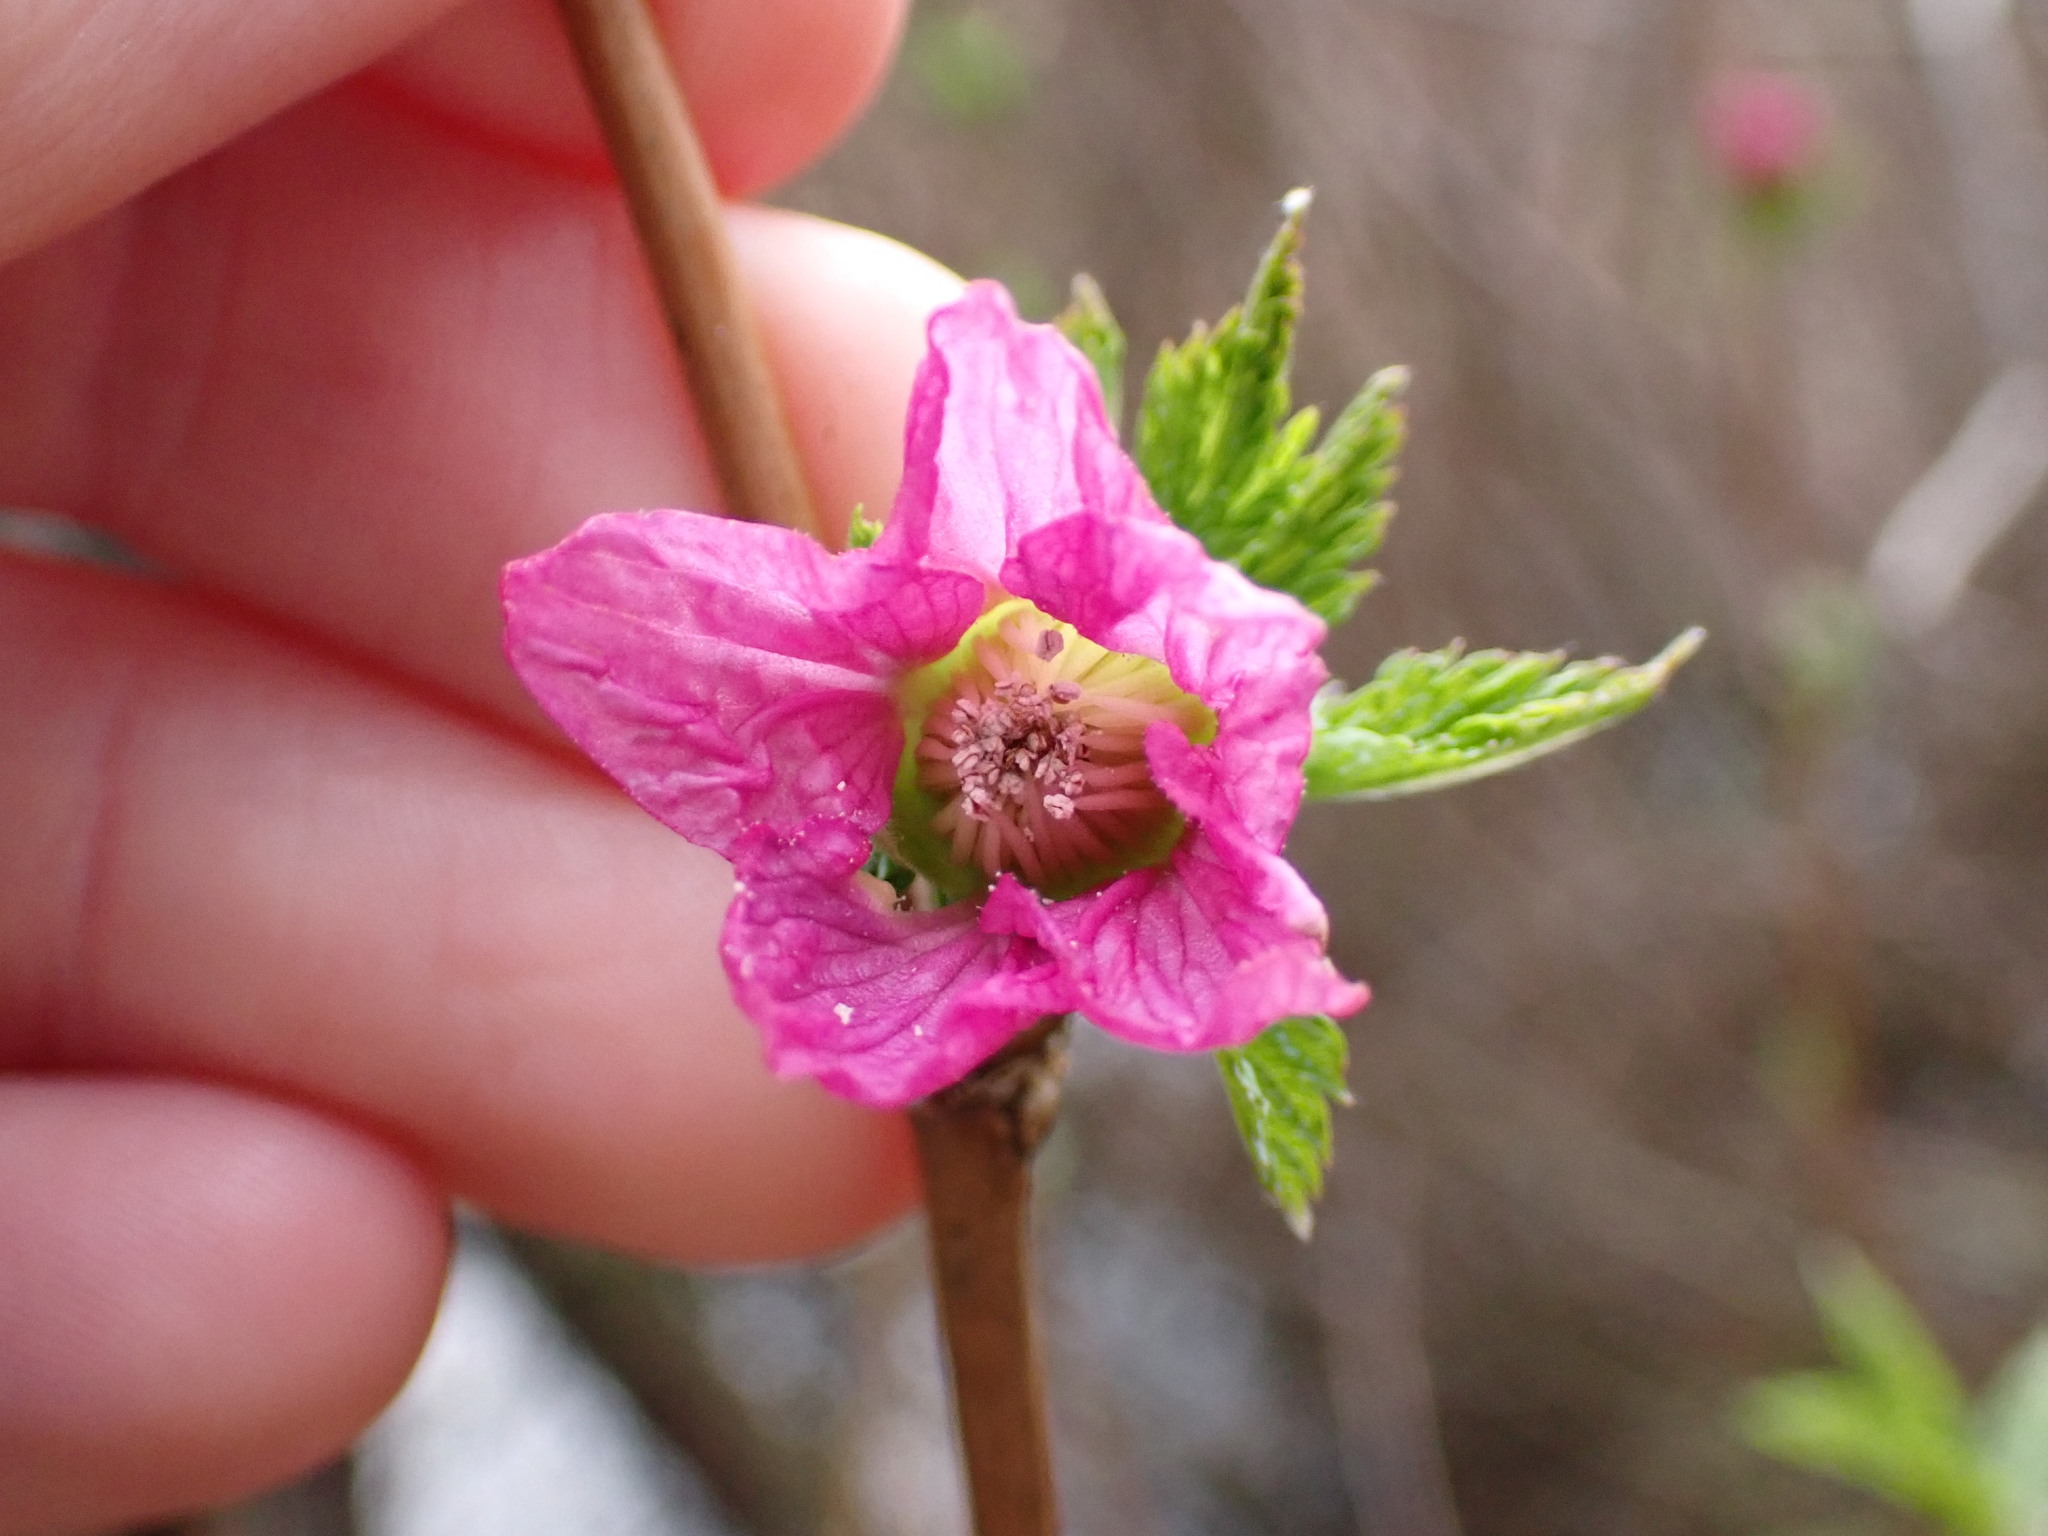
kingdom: Plantae
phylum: Tracheophyta
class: Magnoliopsida
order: Rosales
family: Rosaceae
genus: Rubus
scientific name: Rubus spectabilis
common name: Salmonberry
